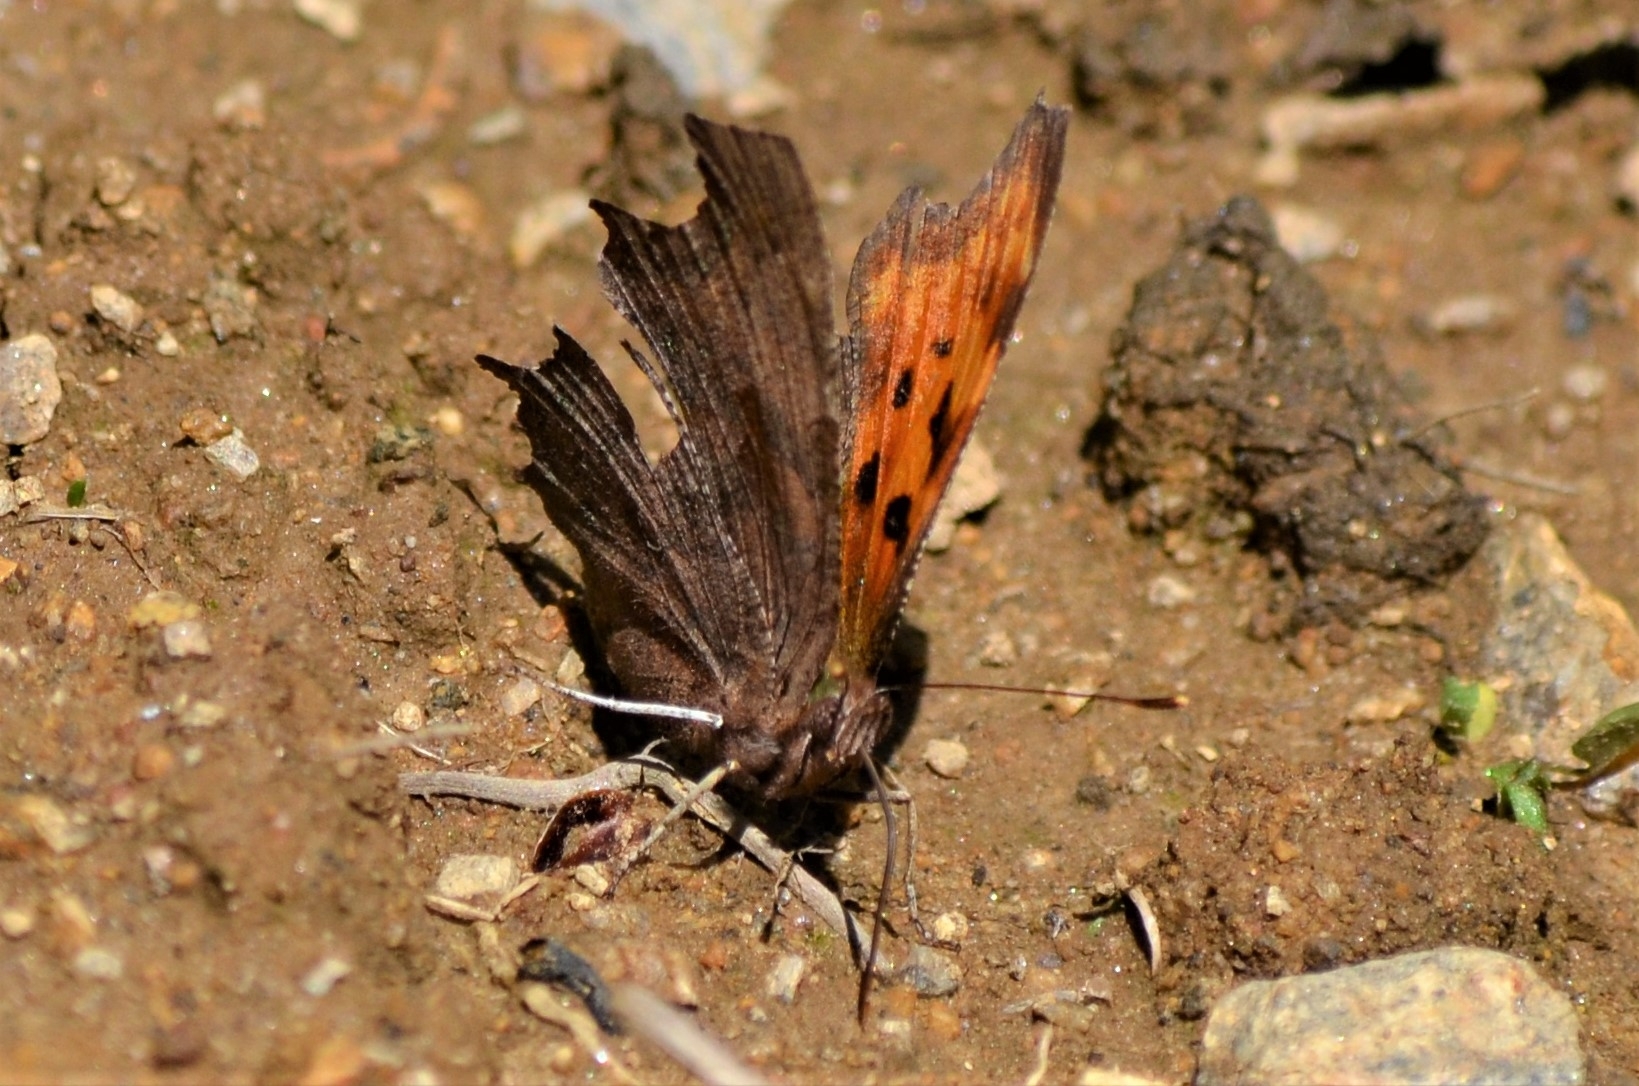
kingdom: Animalia
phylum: Arthropoda
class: Insecta
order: Lepidoptera
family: Nymphalidae
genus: Polygonia
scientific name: Polygonia c-album
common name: Comma
